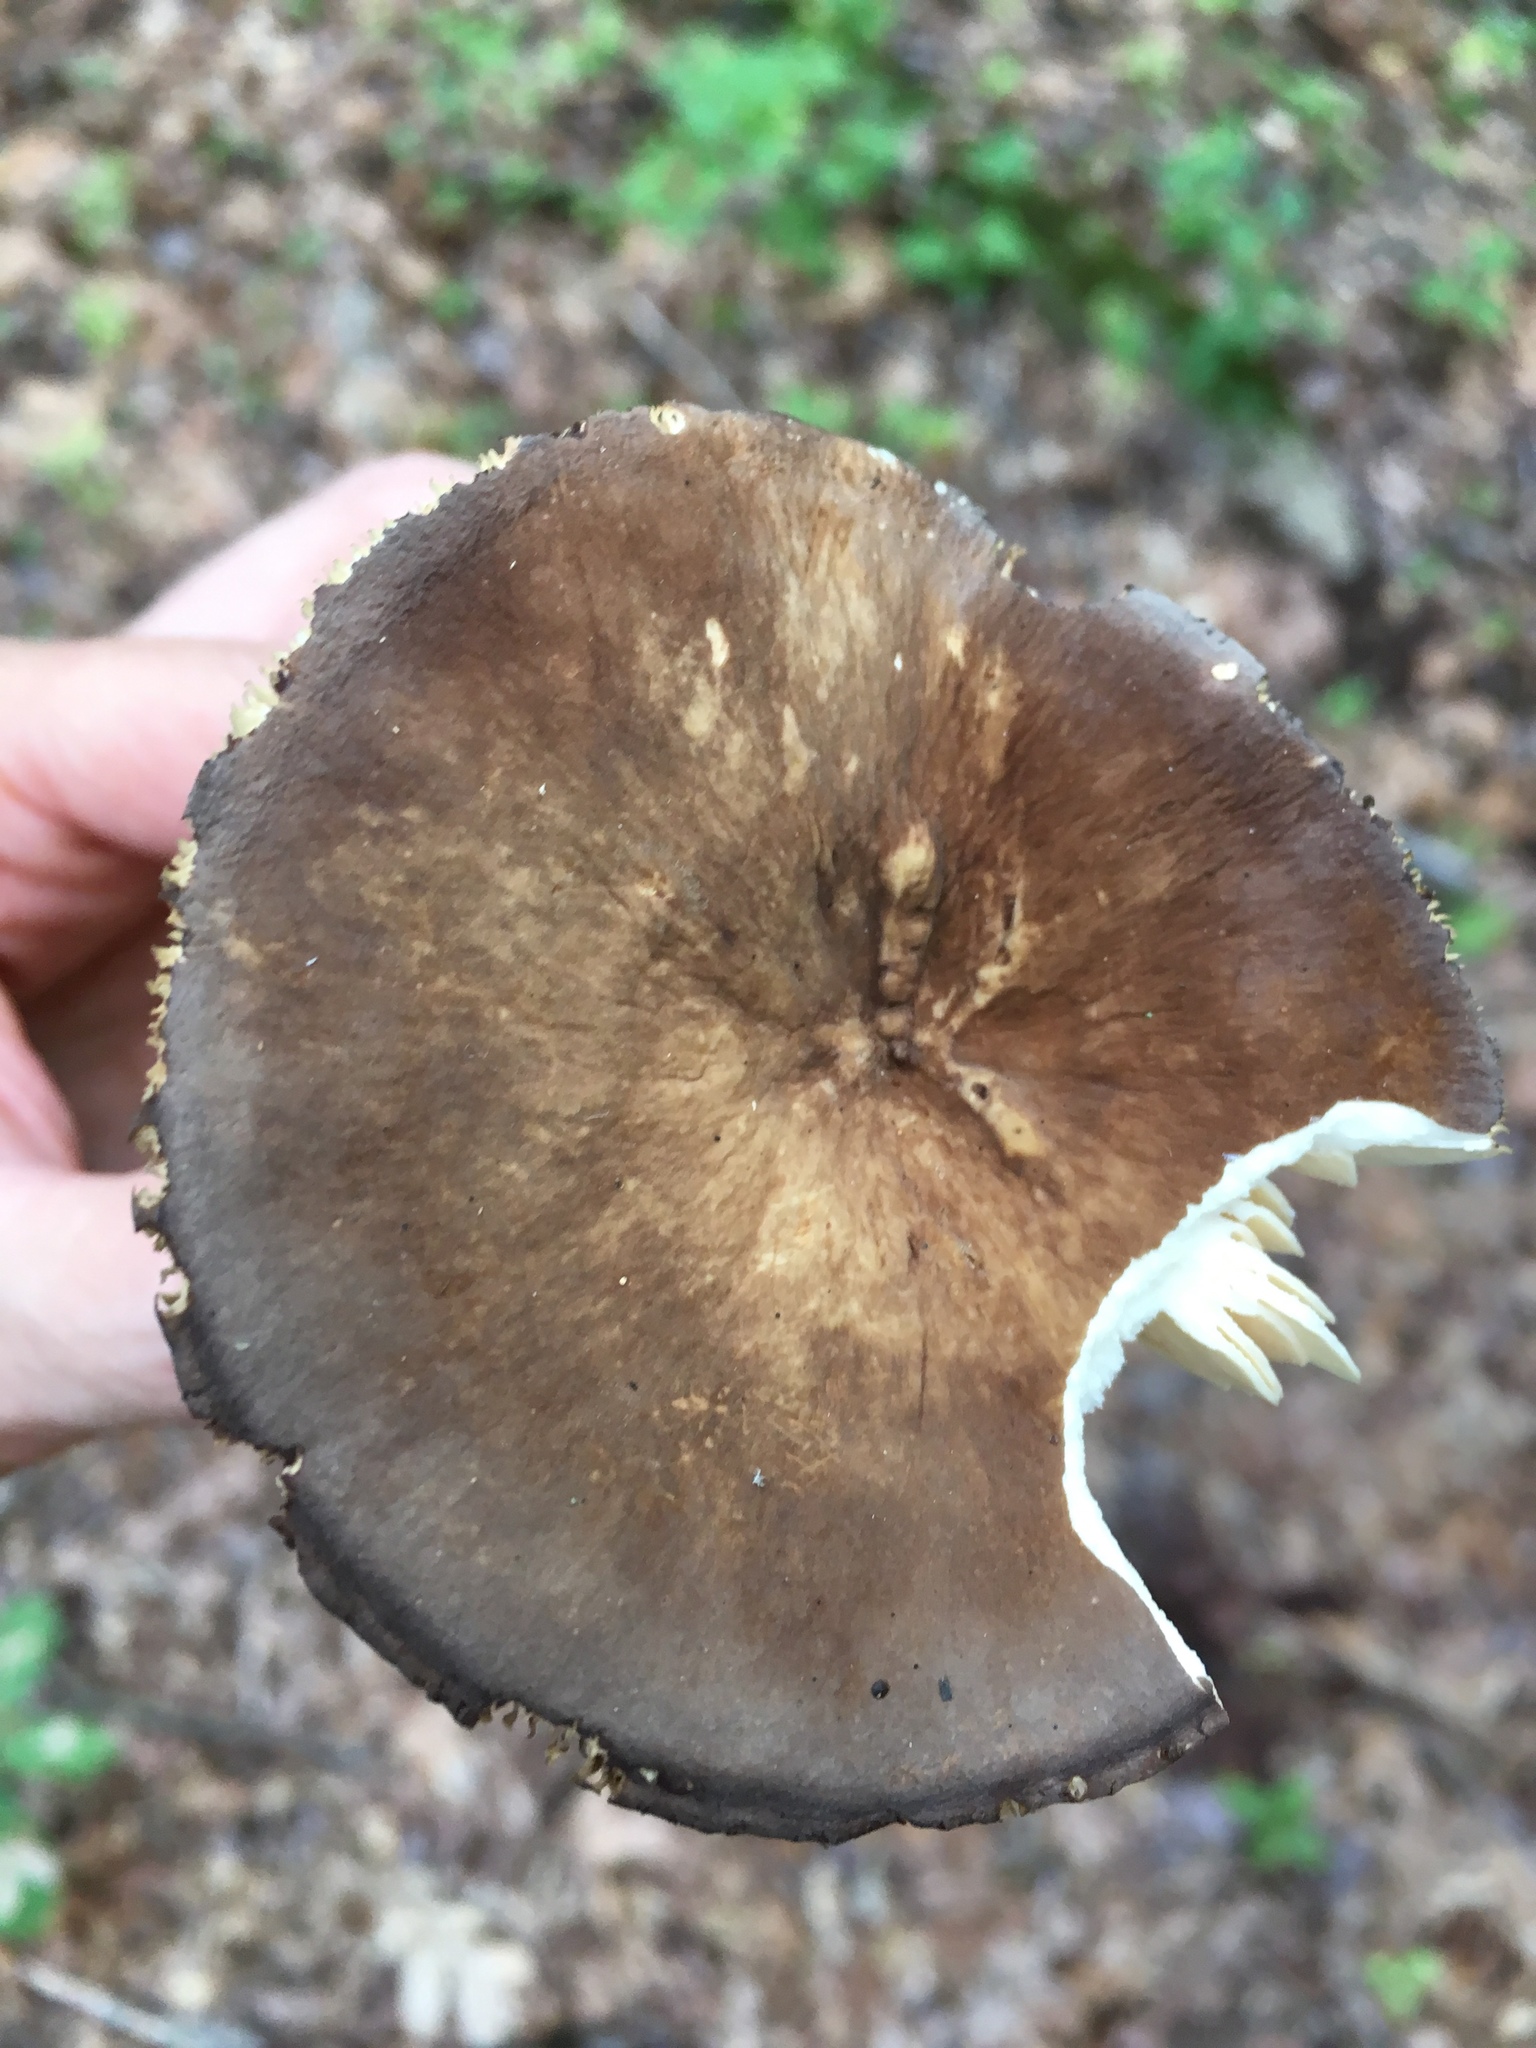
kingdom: Fungi
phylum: Basidiomycota
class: Agaricomycetes
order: Russulales
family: Russulaceae
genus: Lactarius
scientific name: Lactarius fuliginosus
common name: Sooty milkcap
